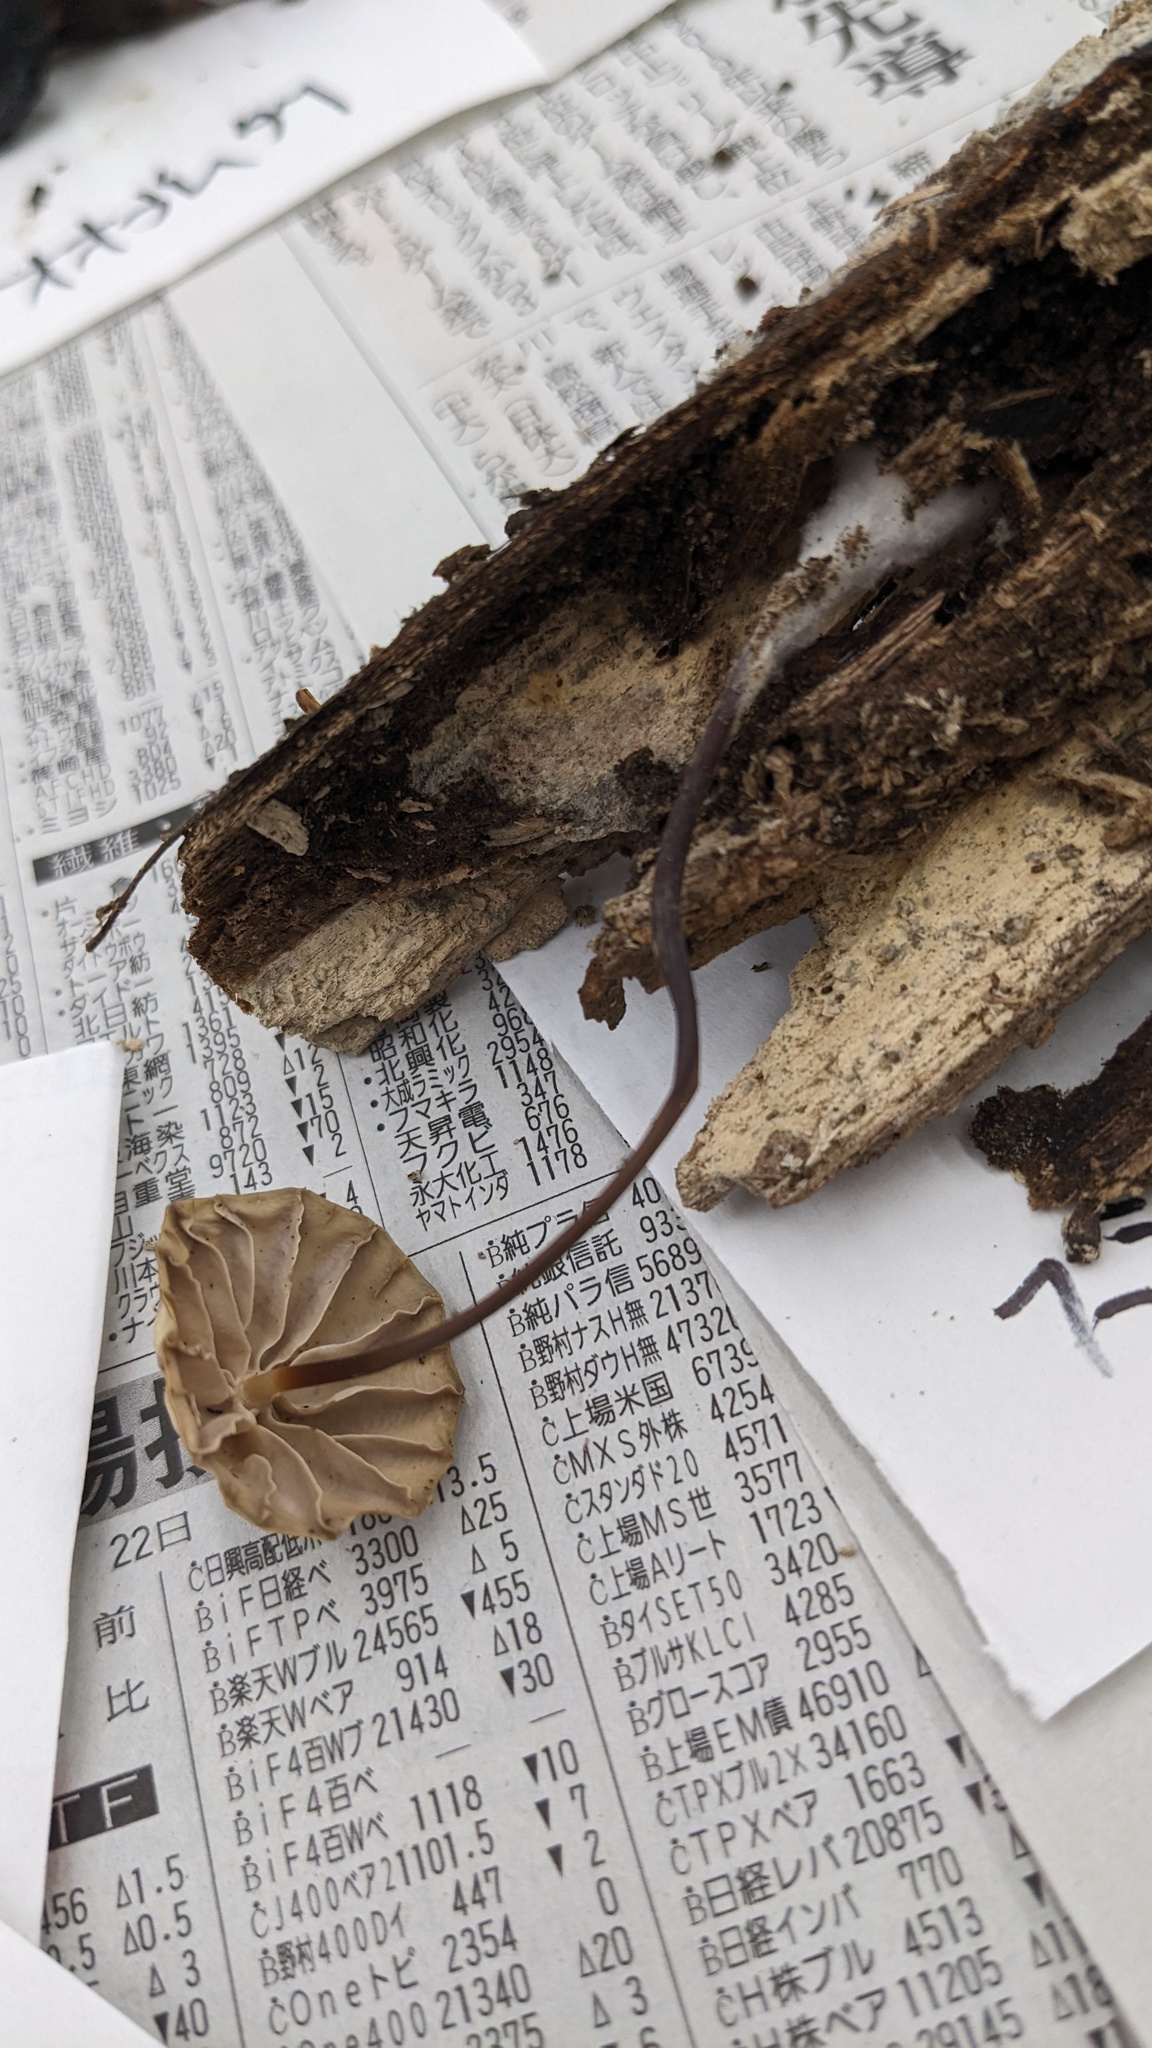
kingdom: Fungi
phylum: Basidiomycota
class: Agaricomycetes
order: Agaricales
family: Marasmiaceae
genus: Marasmius
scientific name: Marasmius purpureostriatus
